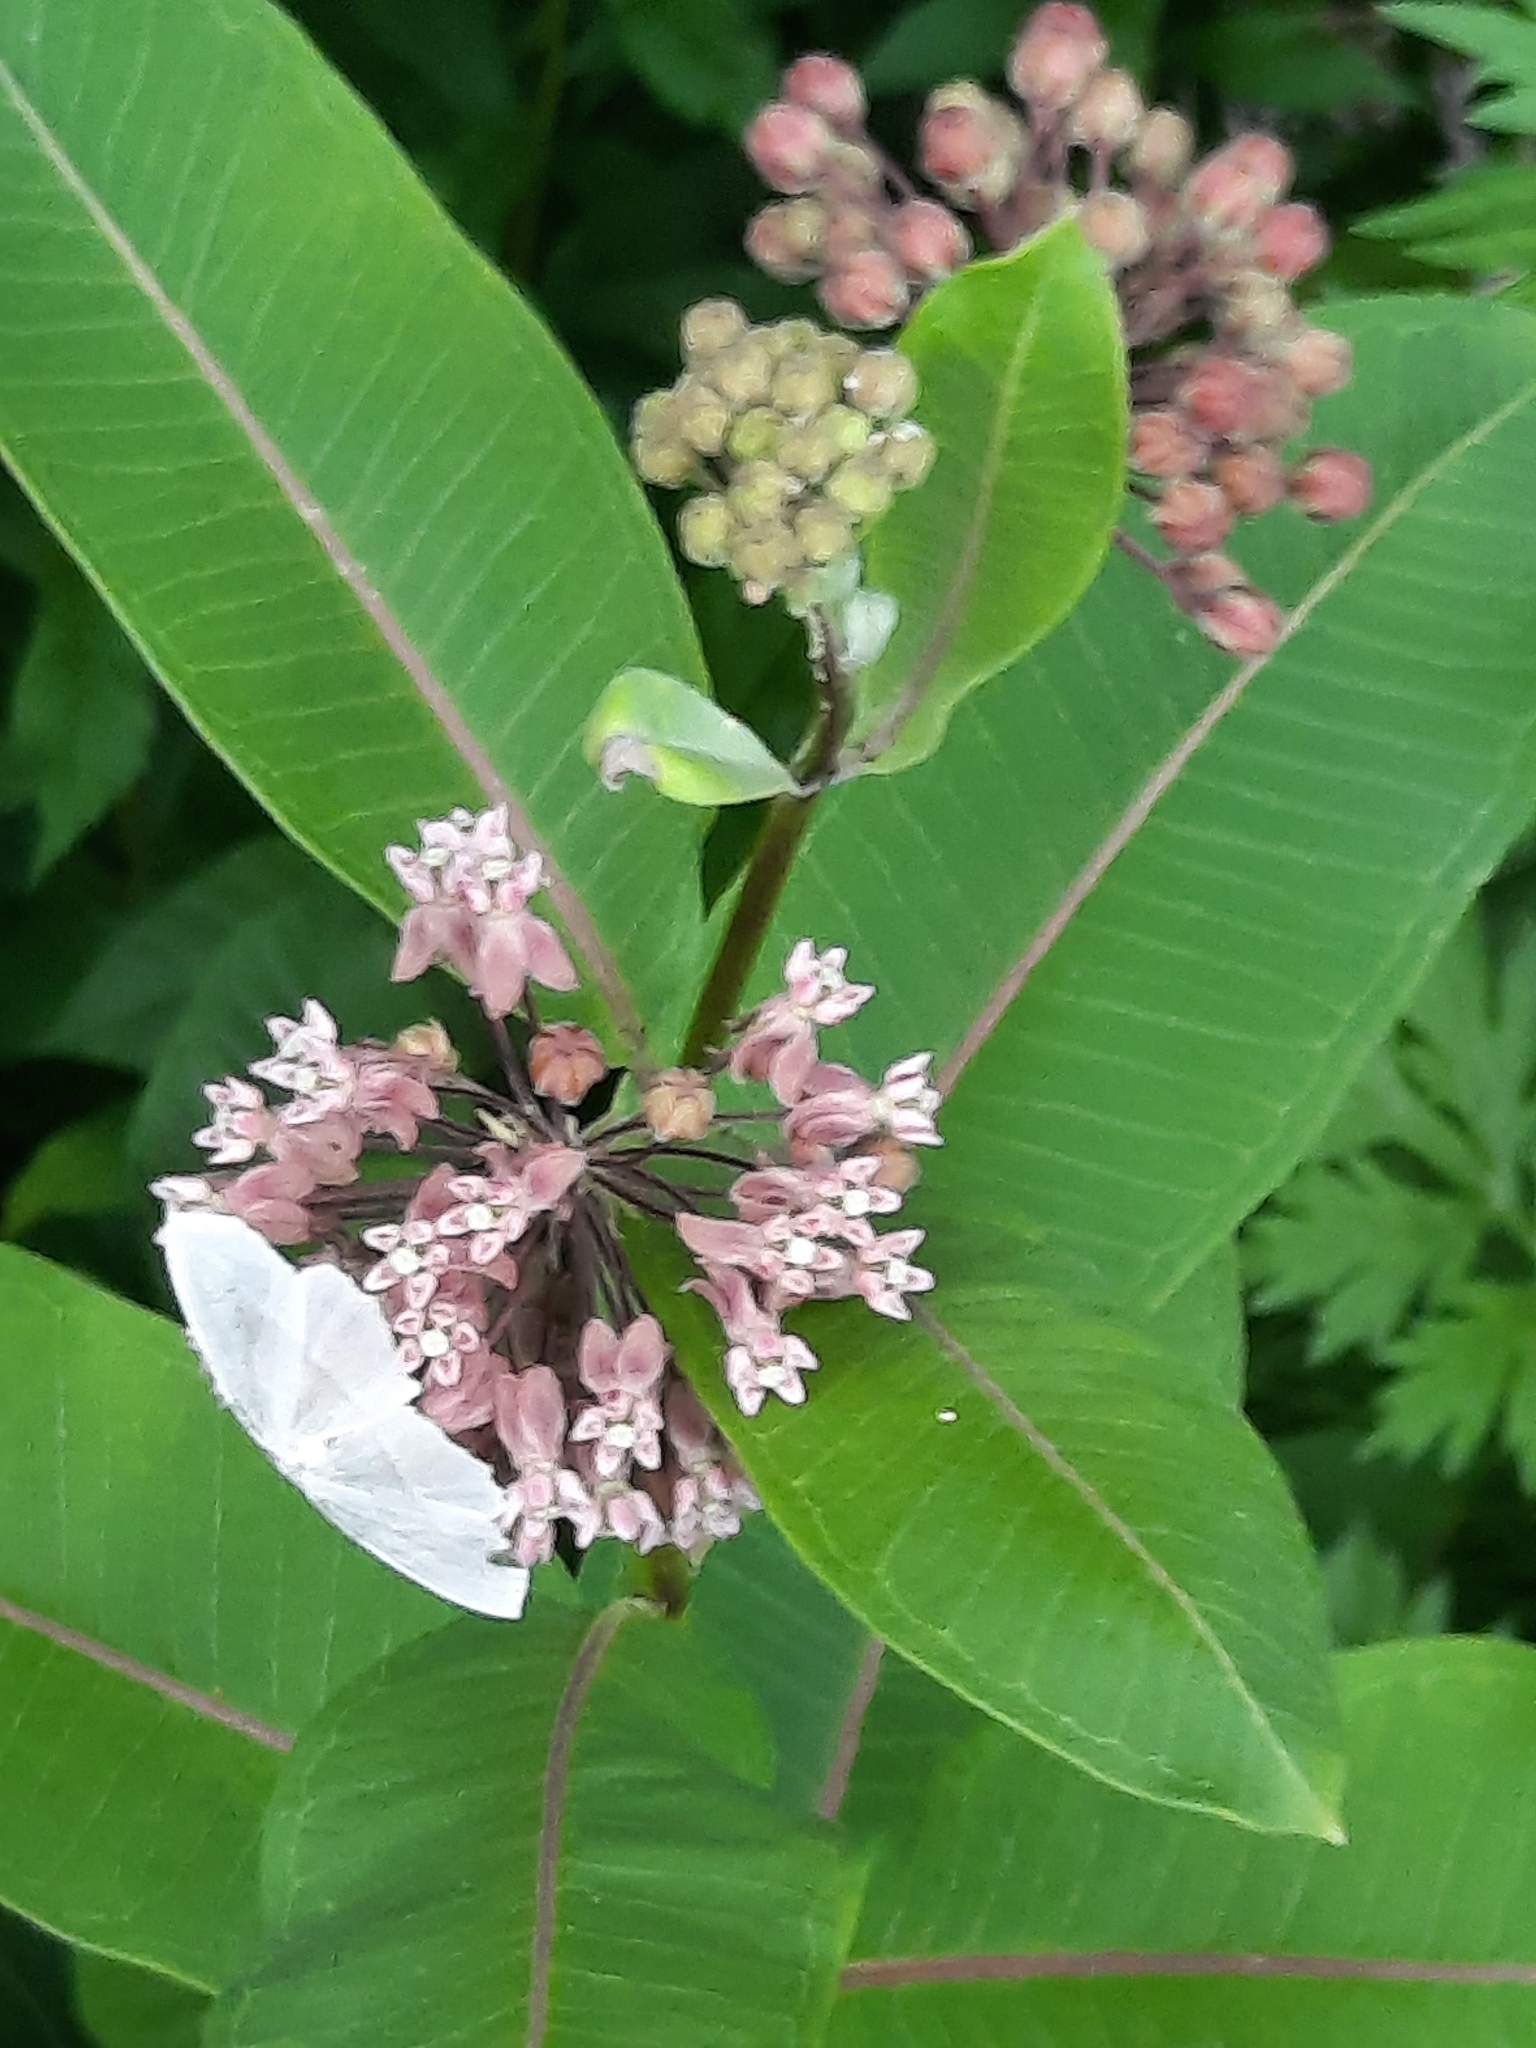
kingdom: Plantae
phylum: Tracheophyta
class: Magnoliopsida
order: Gentianales
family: Apocynaceae
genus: Asclepias
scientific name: Asclepias syriaca
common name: Common milkweed
